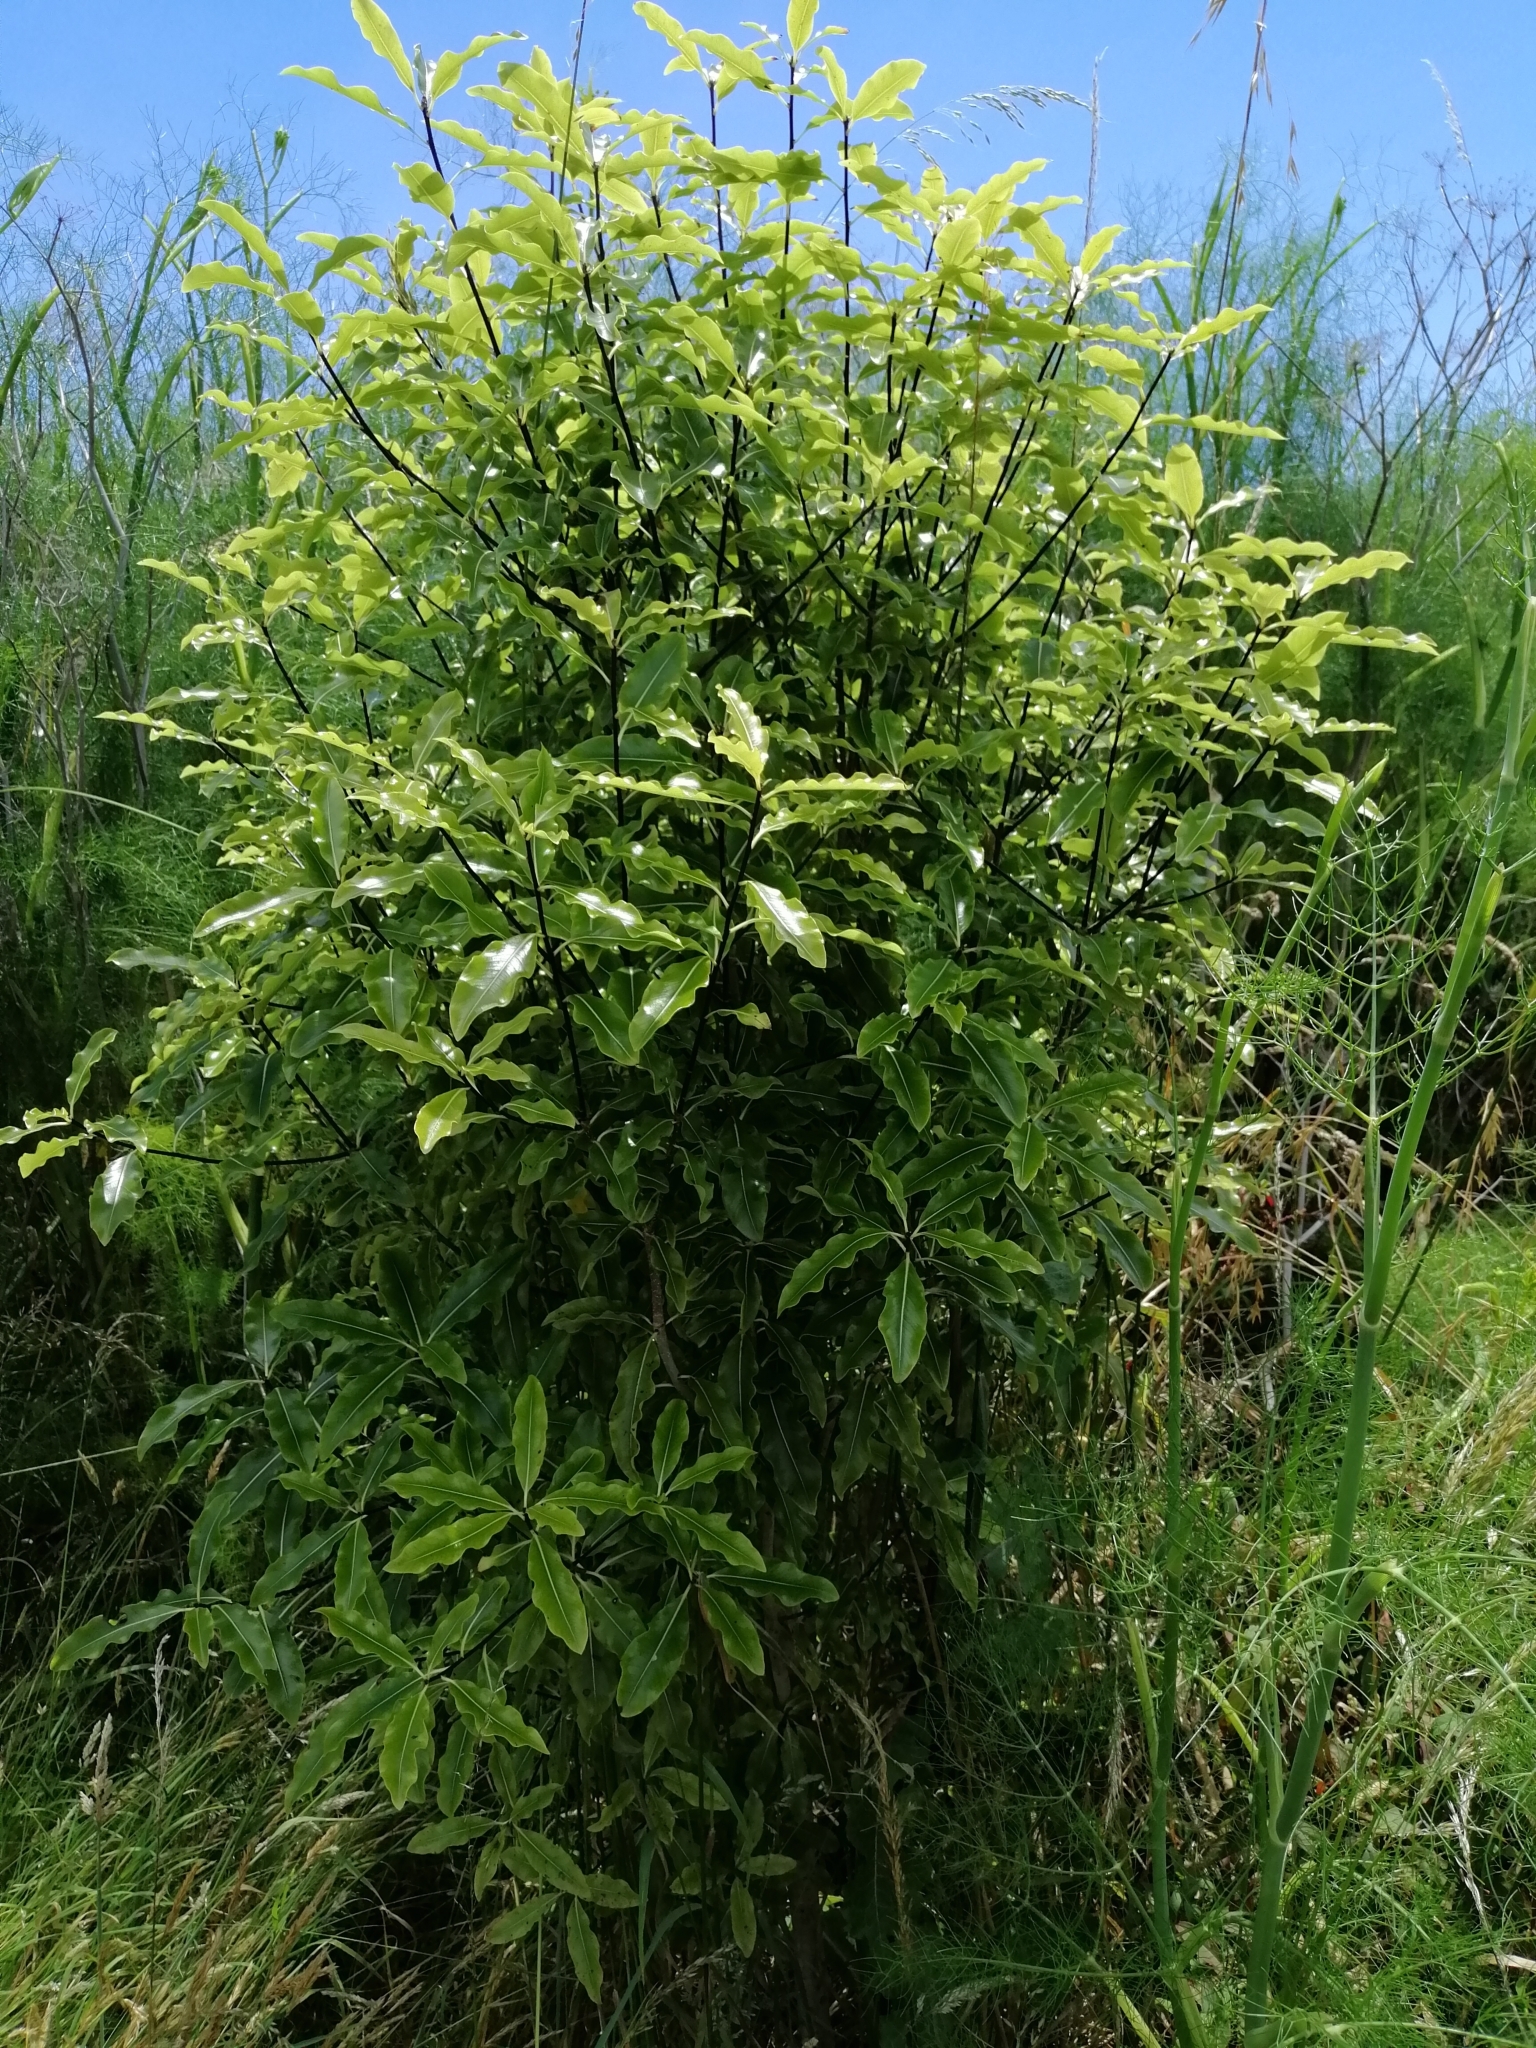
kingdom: Plantae
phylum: Tracheophyta
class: Magnoliopsida
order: Apiales
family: Pittosporaceae
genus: Pittosporum
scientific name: Pittosporum eugenioides
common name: Lemonwood
